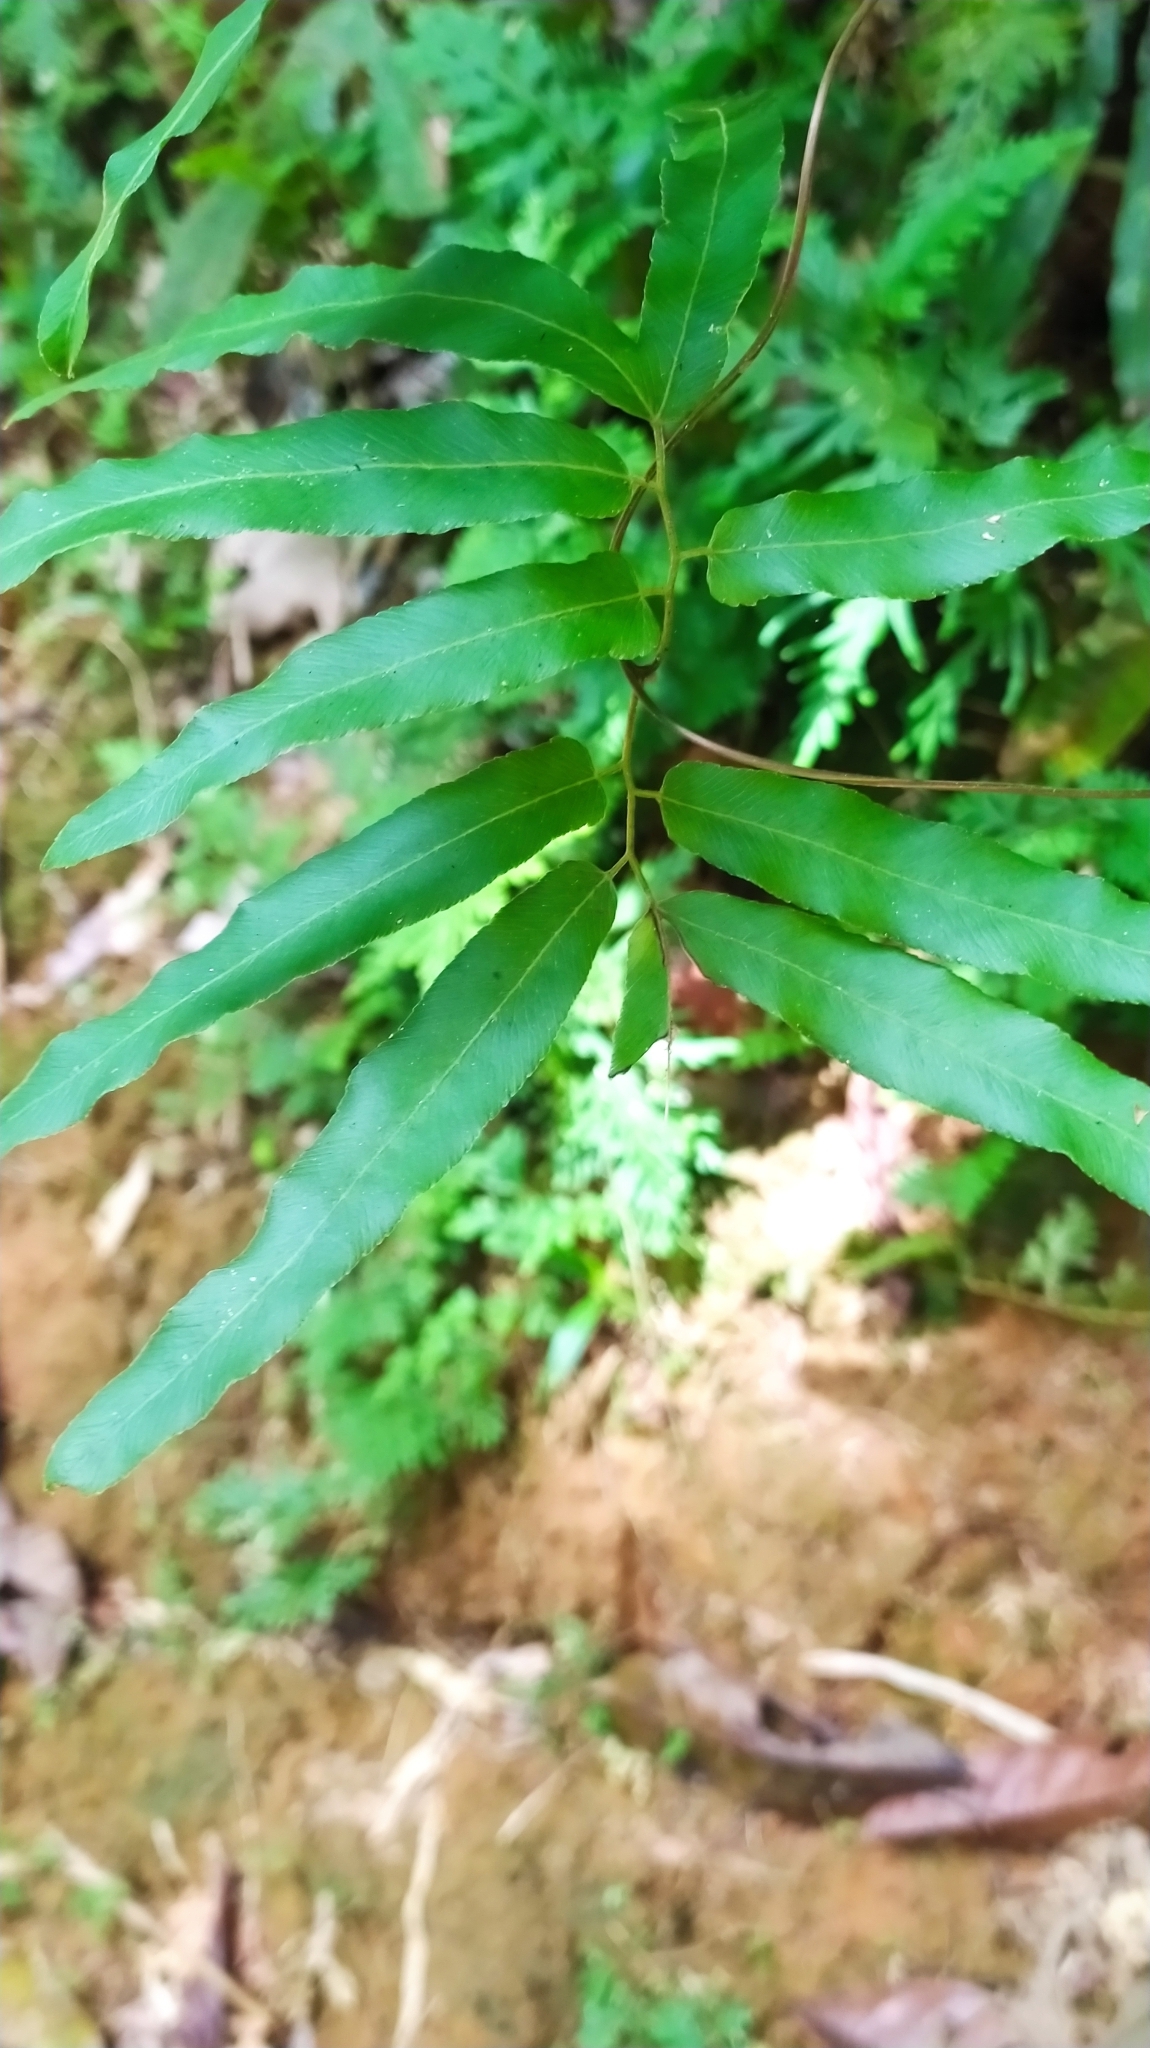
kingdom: Plantae
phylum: Tracheophyta
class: Polypodiopsida
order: Schizaeales
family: Lygodiaceae
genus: Lygodium
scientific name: Lygodium volubile
